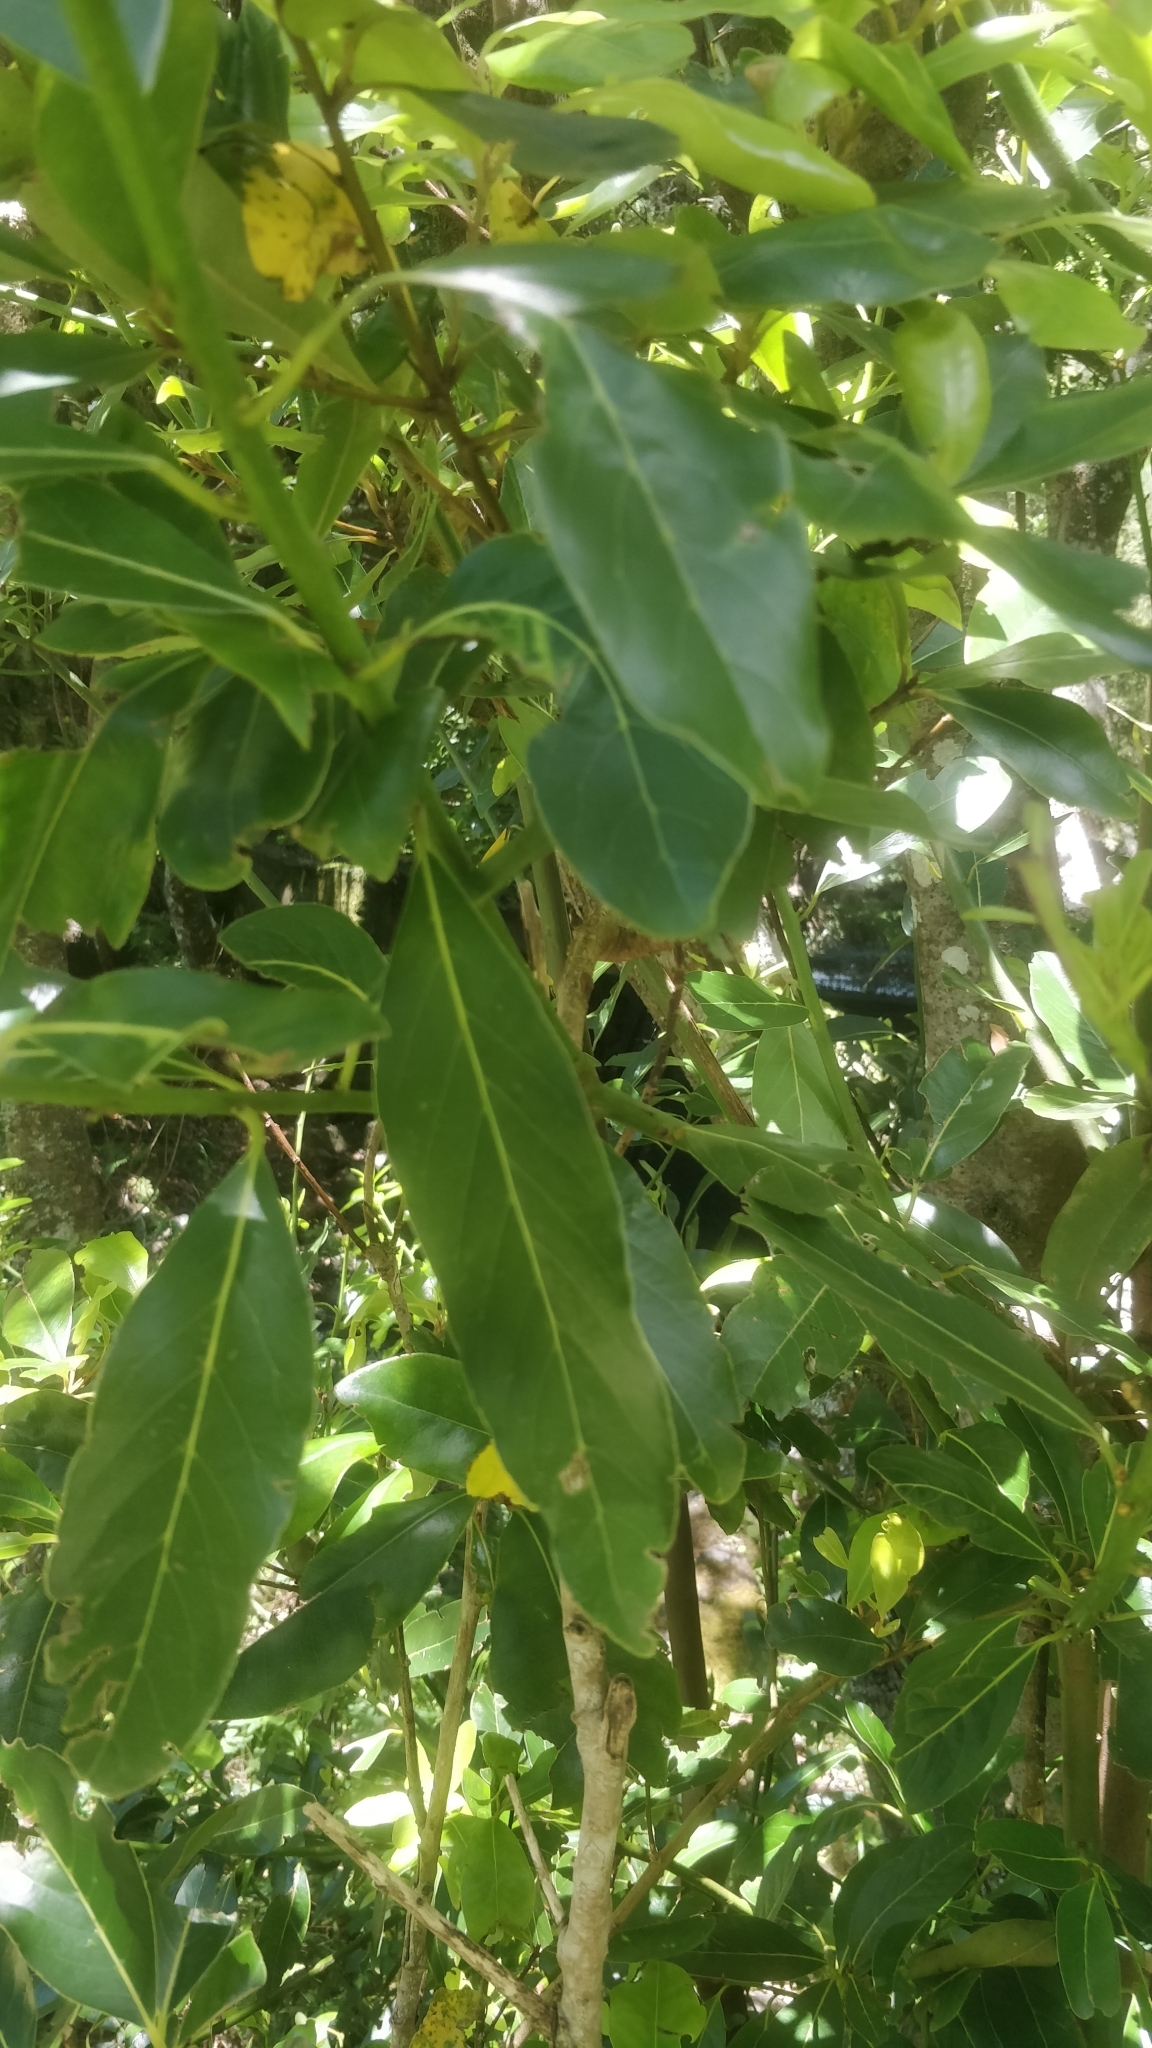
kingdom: Plantae
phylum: Tracheophyta
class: Magnoliopsida
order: Laurales
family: Lauraceae
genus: Laurus
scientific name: Laurus novocanariensis
